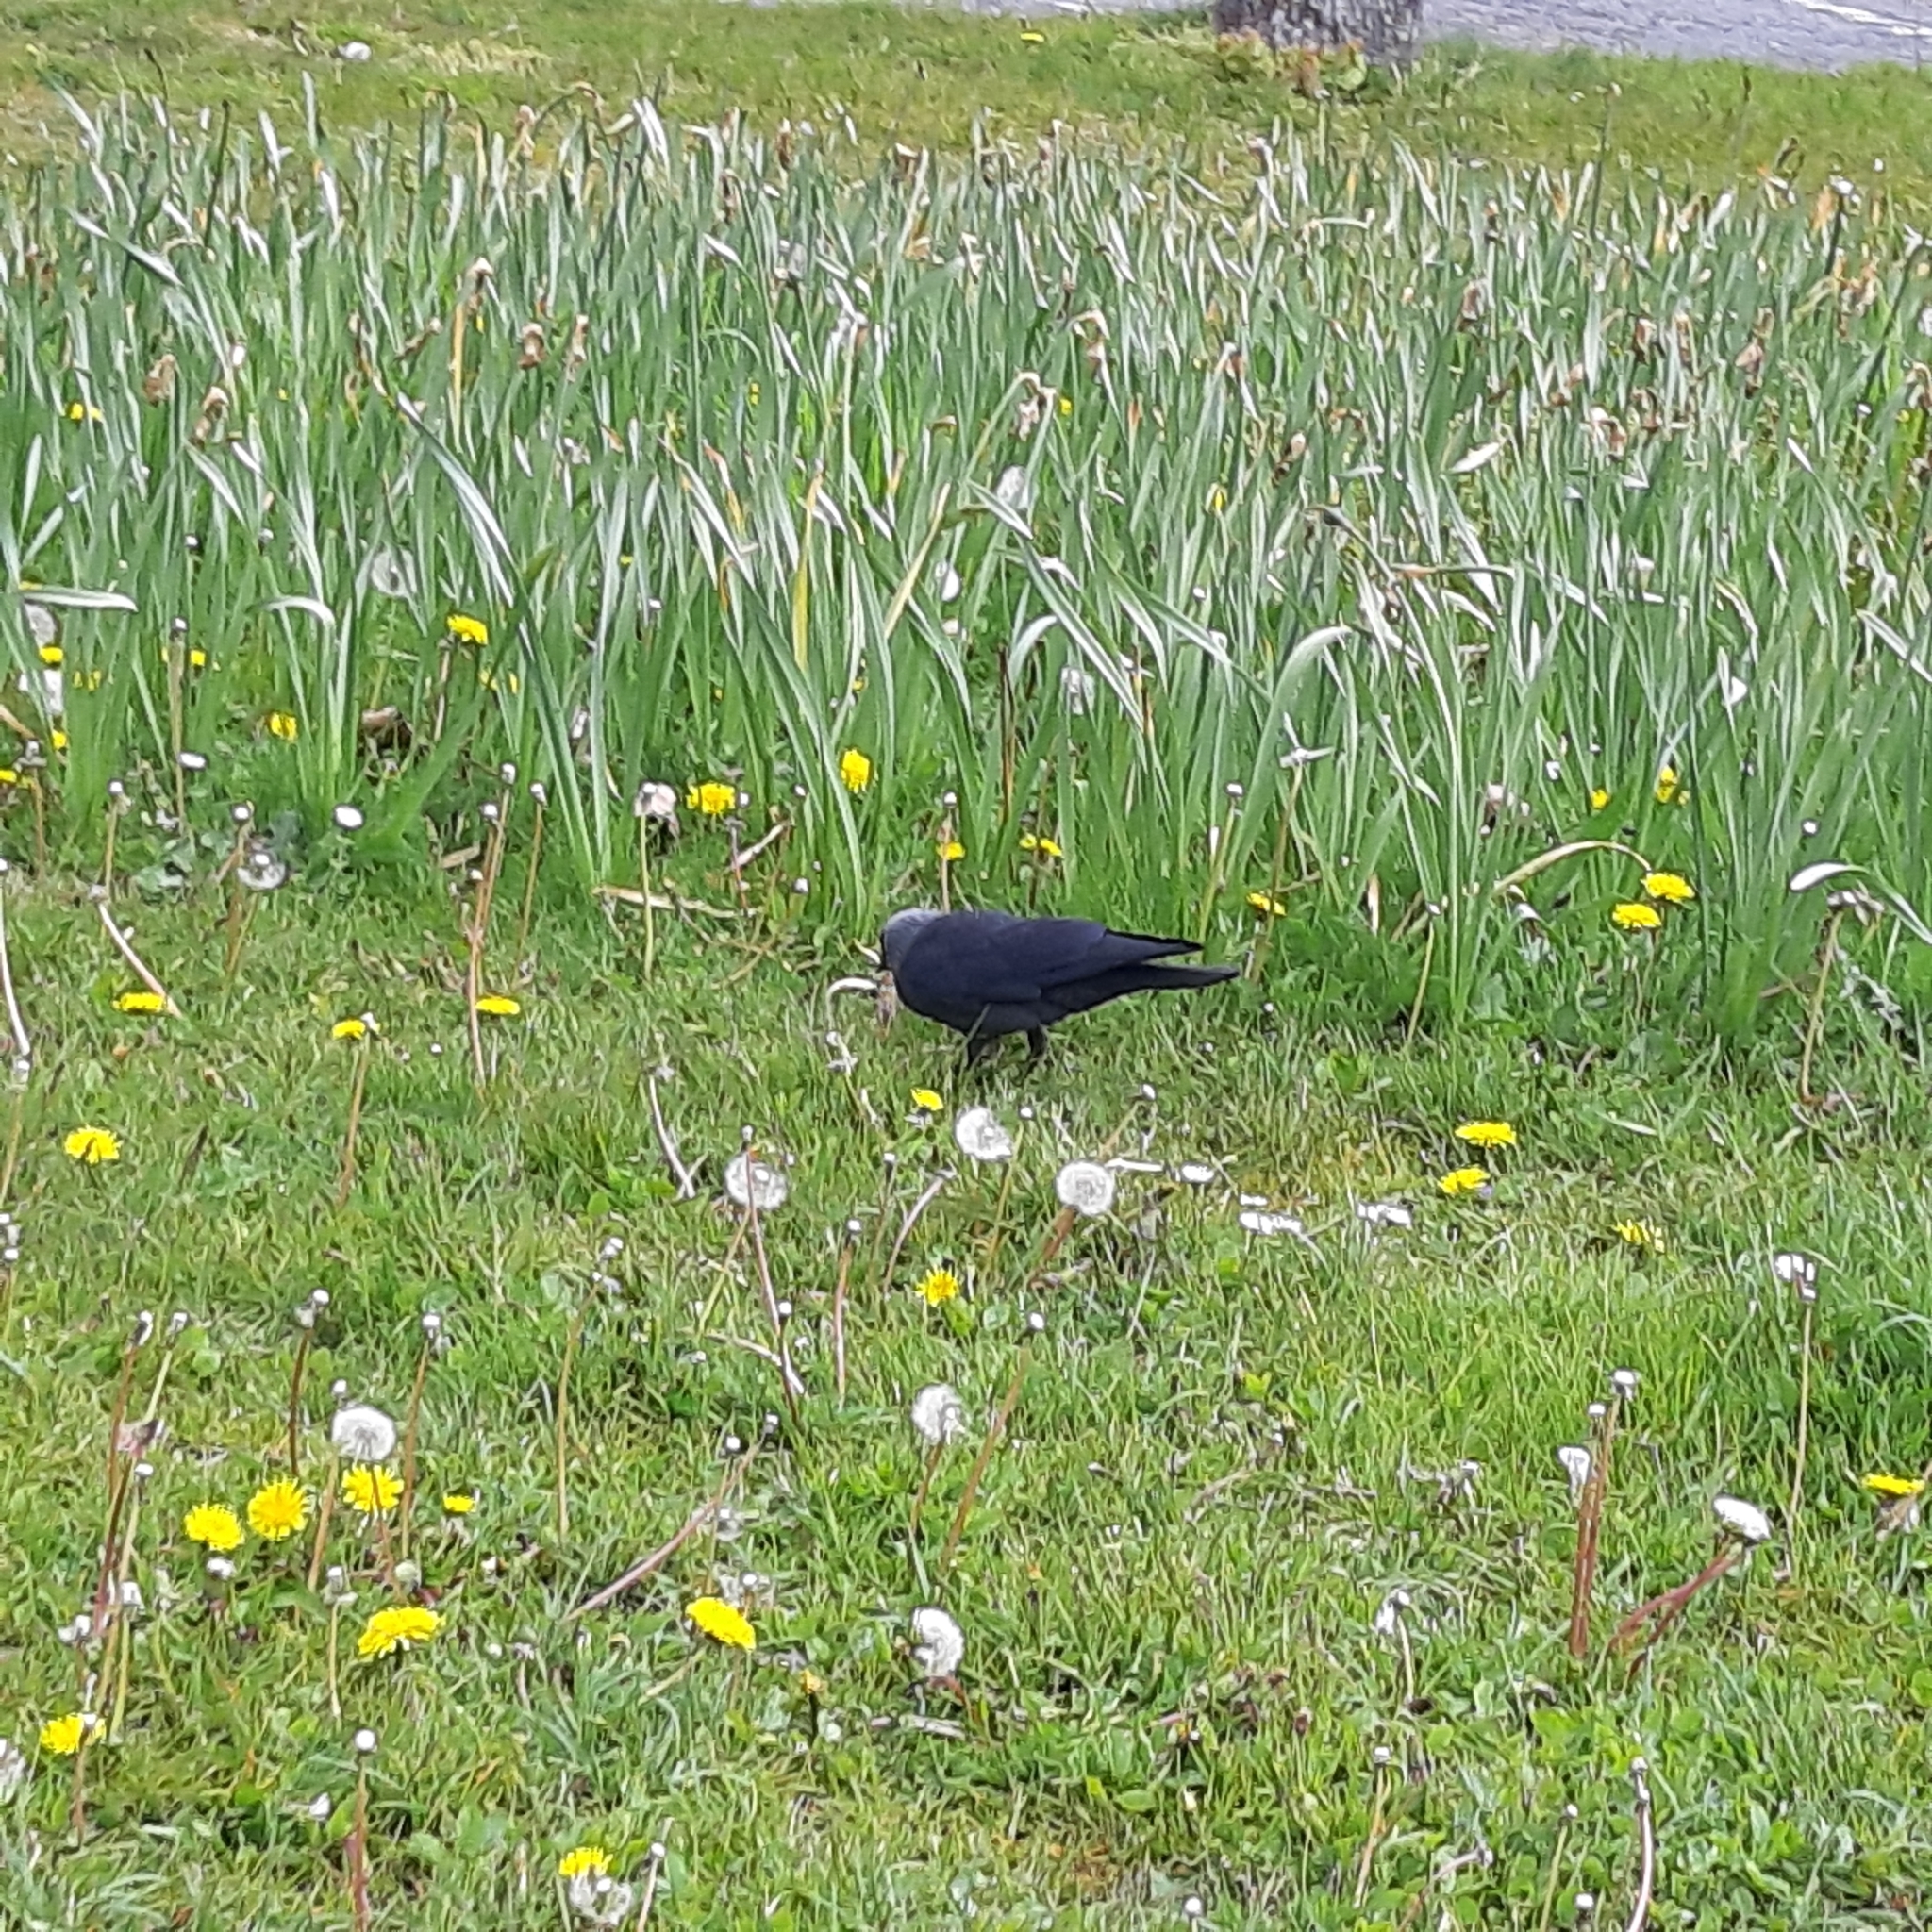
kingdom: Animalia
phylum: Chordata
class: Aves
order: Passeriformes
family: Corvidae
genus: Coloeus
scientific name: Coloeus monedula
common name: Western jackdaw
